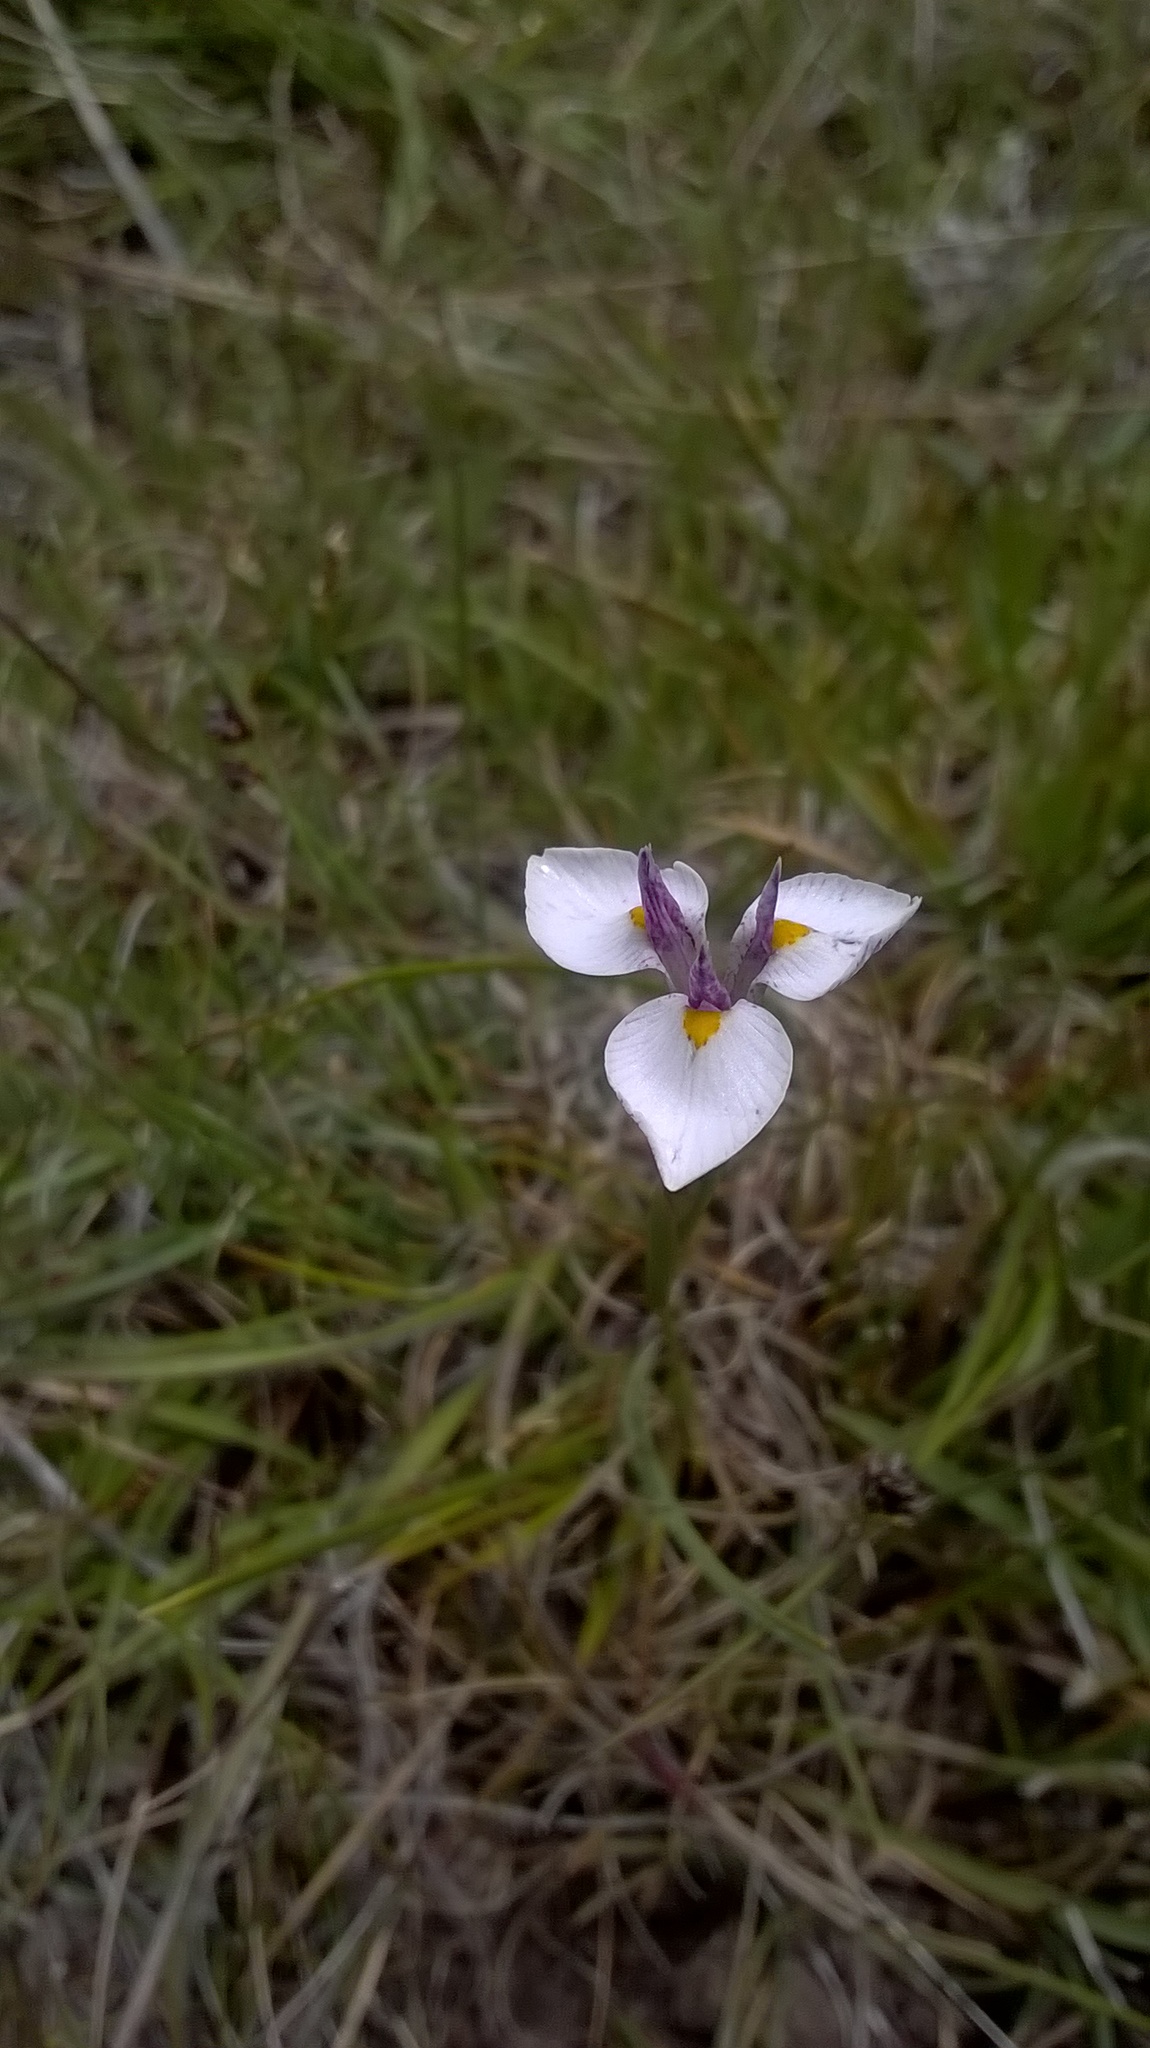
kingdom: Plantae
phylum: Tracheophyta
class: Liliopsida
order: Asparagales
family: Iridaceae
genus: Moraea
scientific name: Moraea modesta
